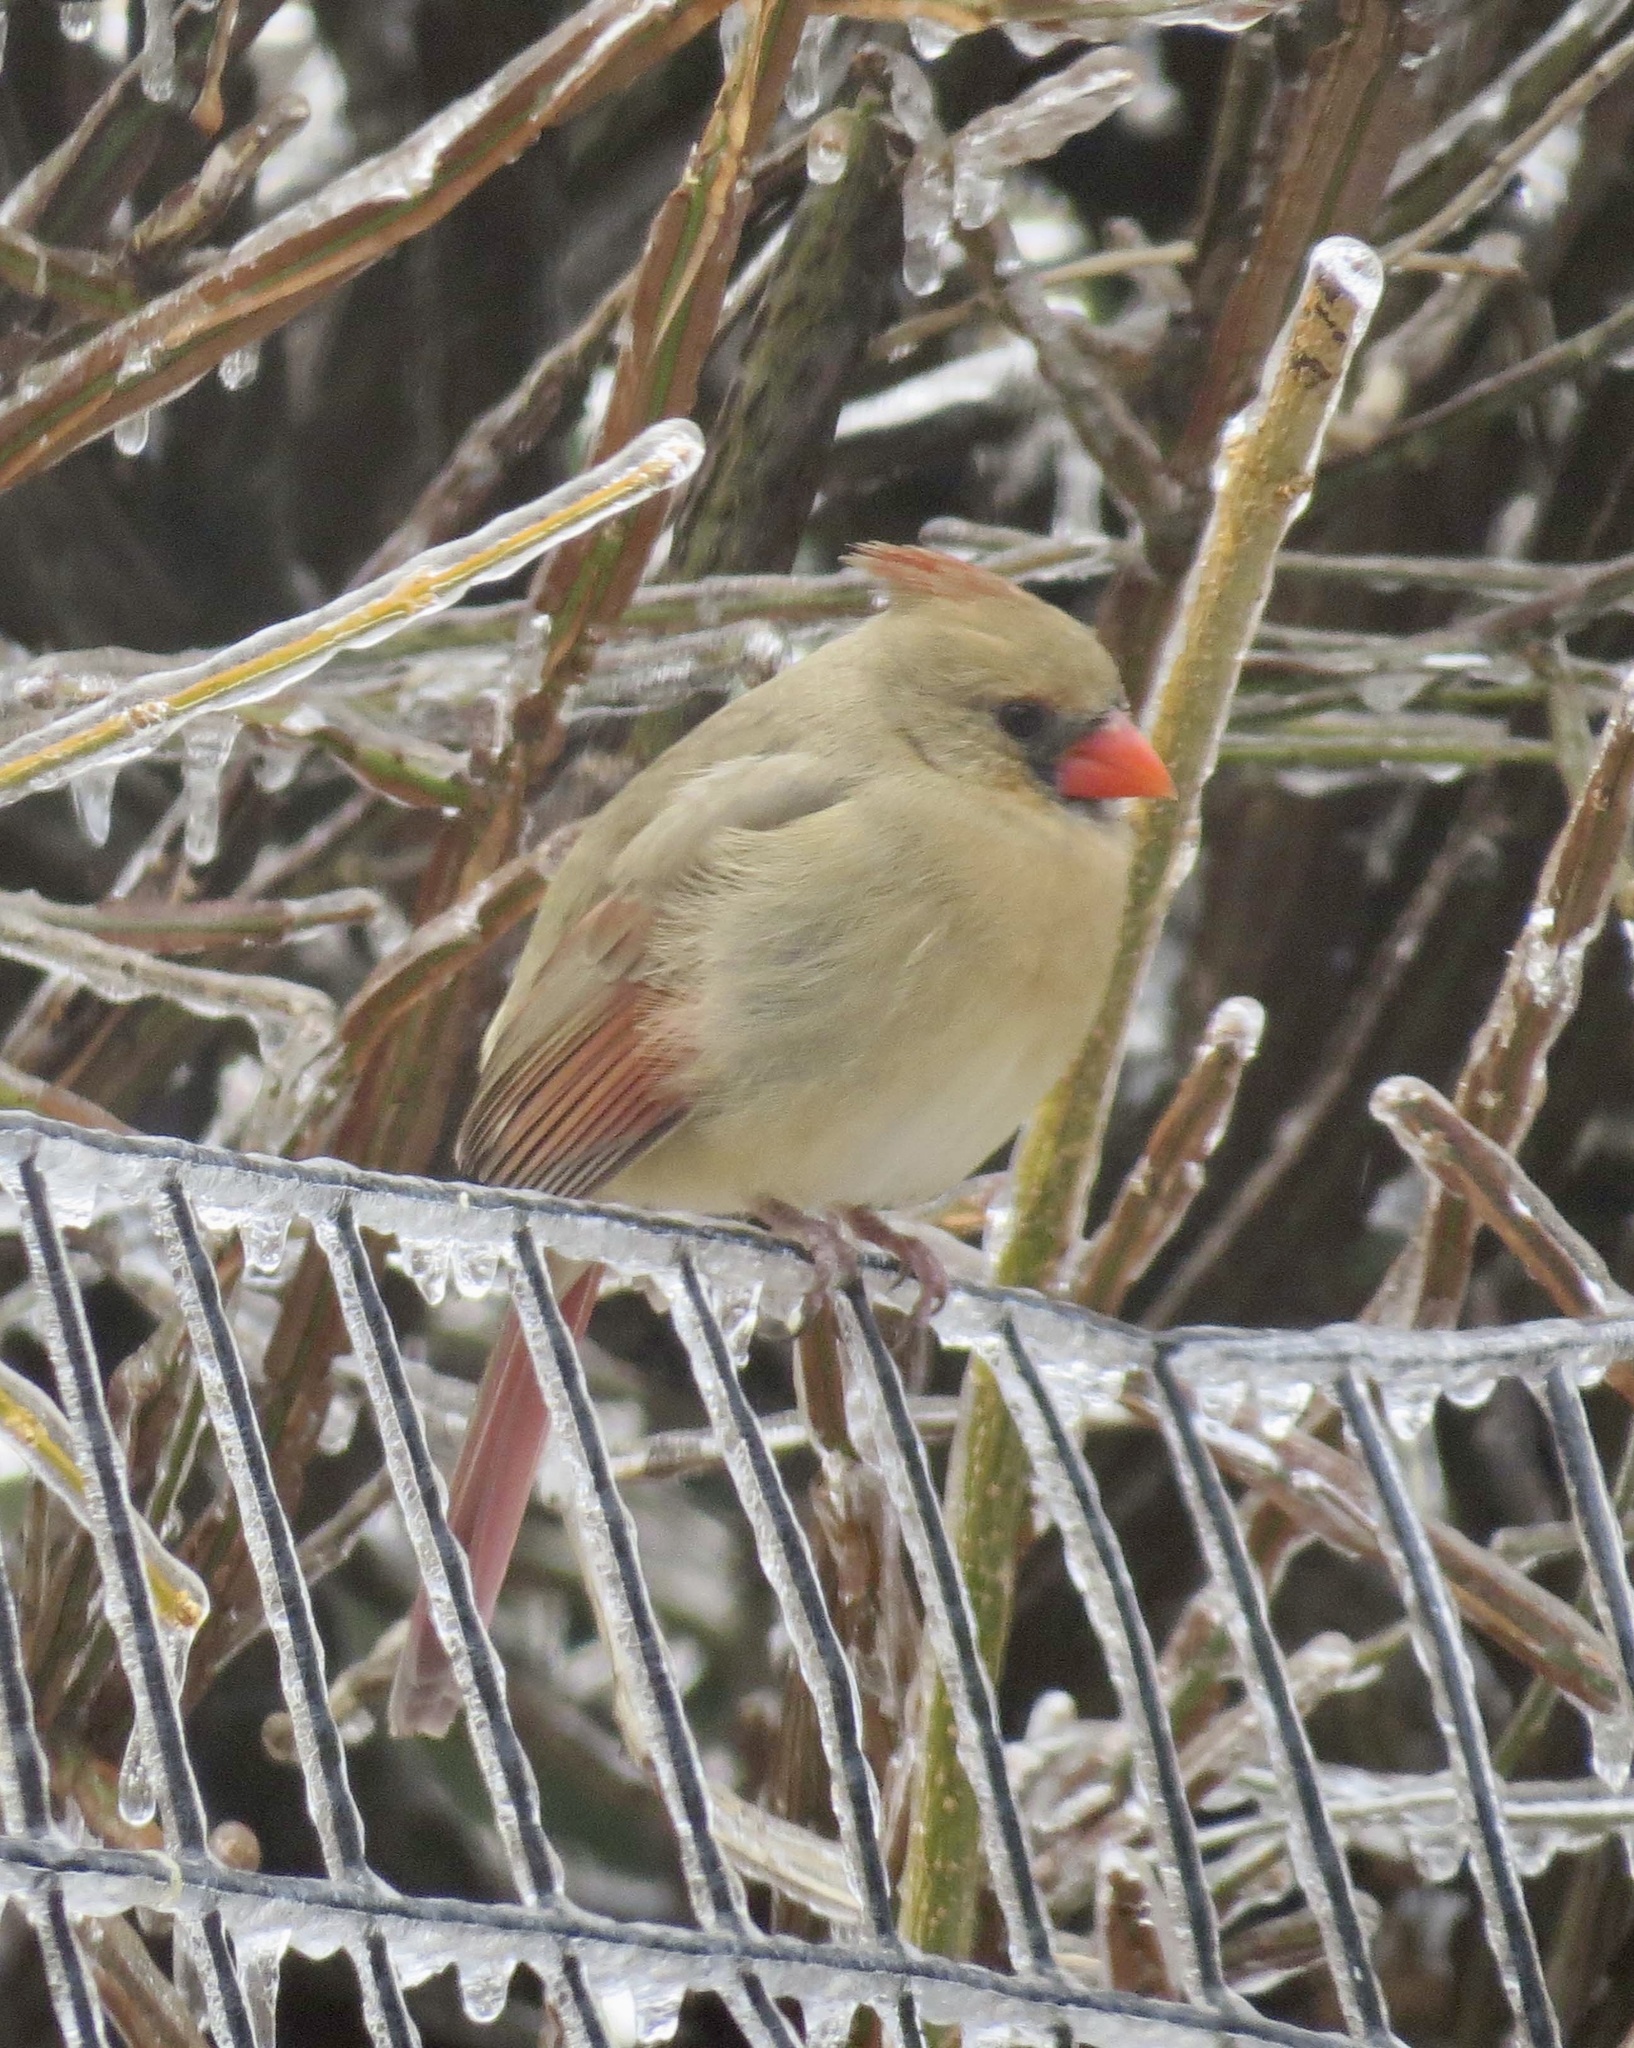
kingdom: Animalia
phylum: Chordata
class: Aves
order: Passeriformes
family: Cardinalidae
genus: Cardinalis
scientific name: Cardinalis cardinalis
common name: Northern cardinal
